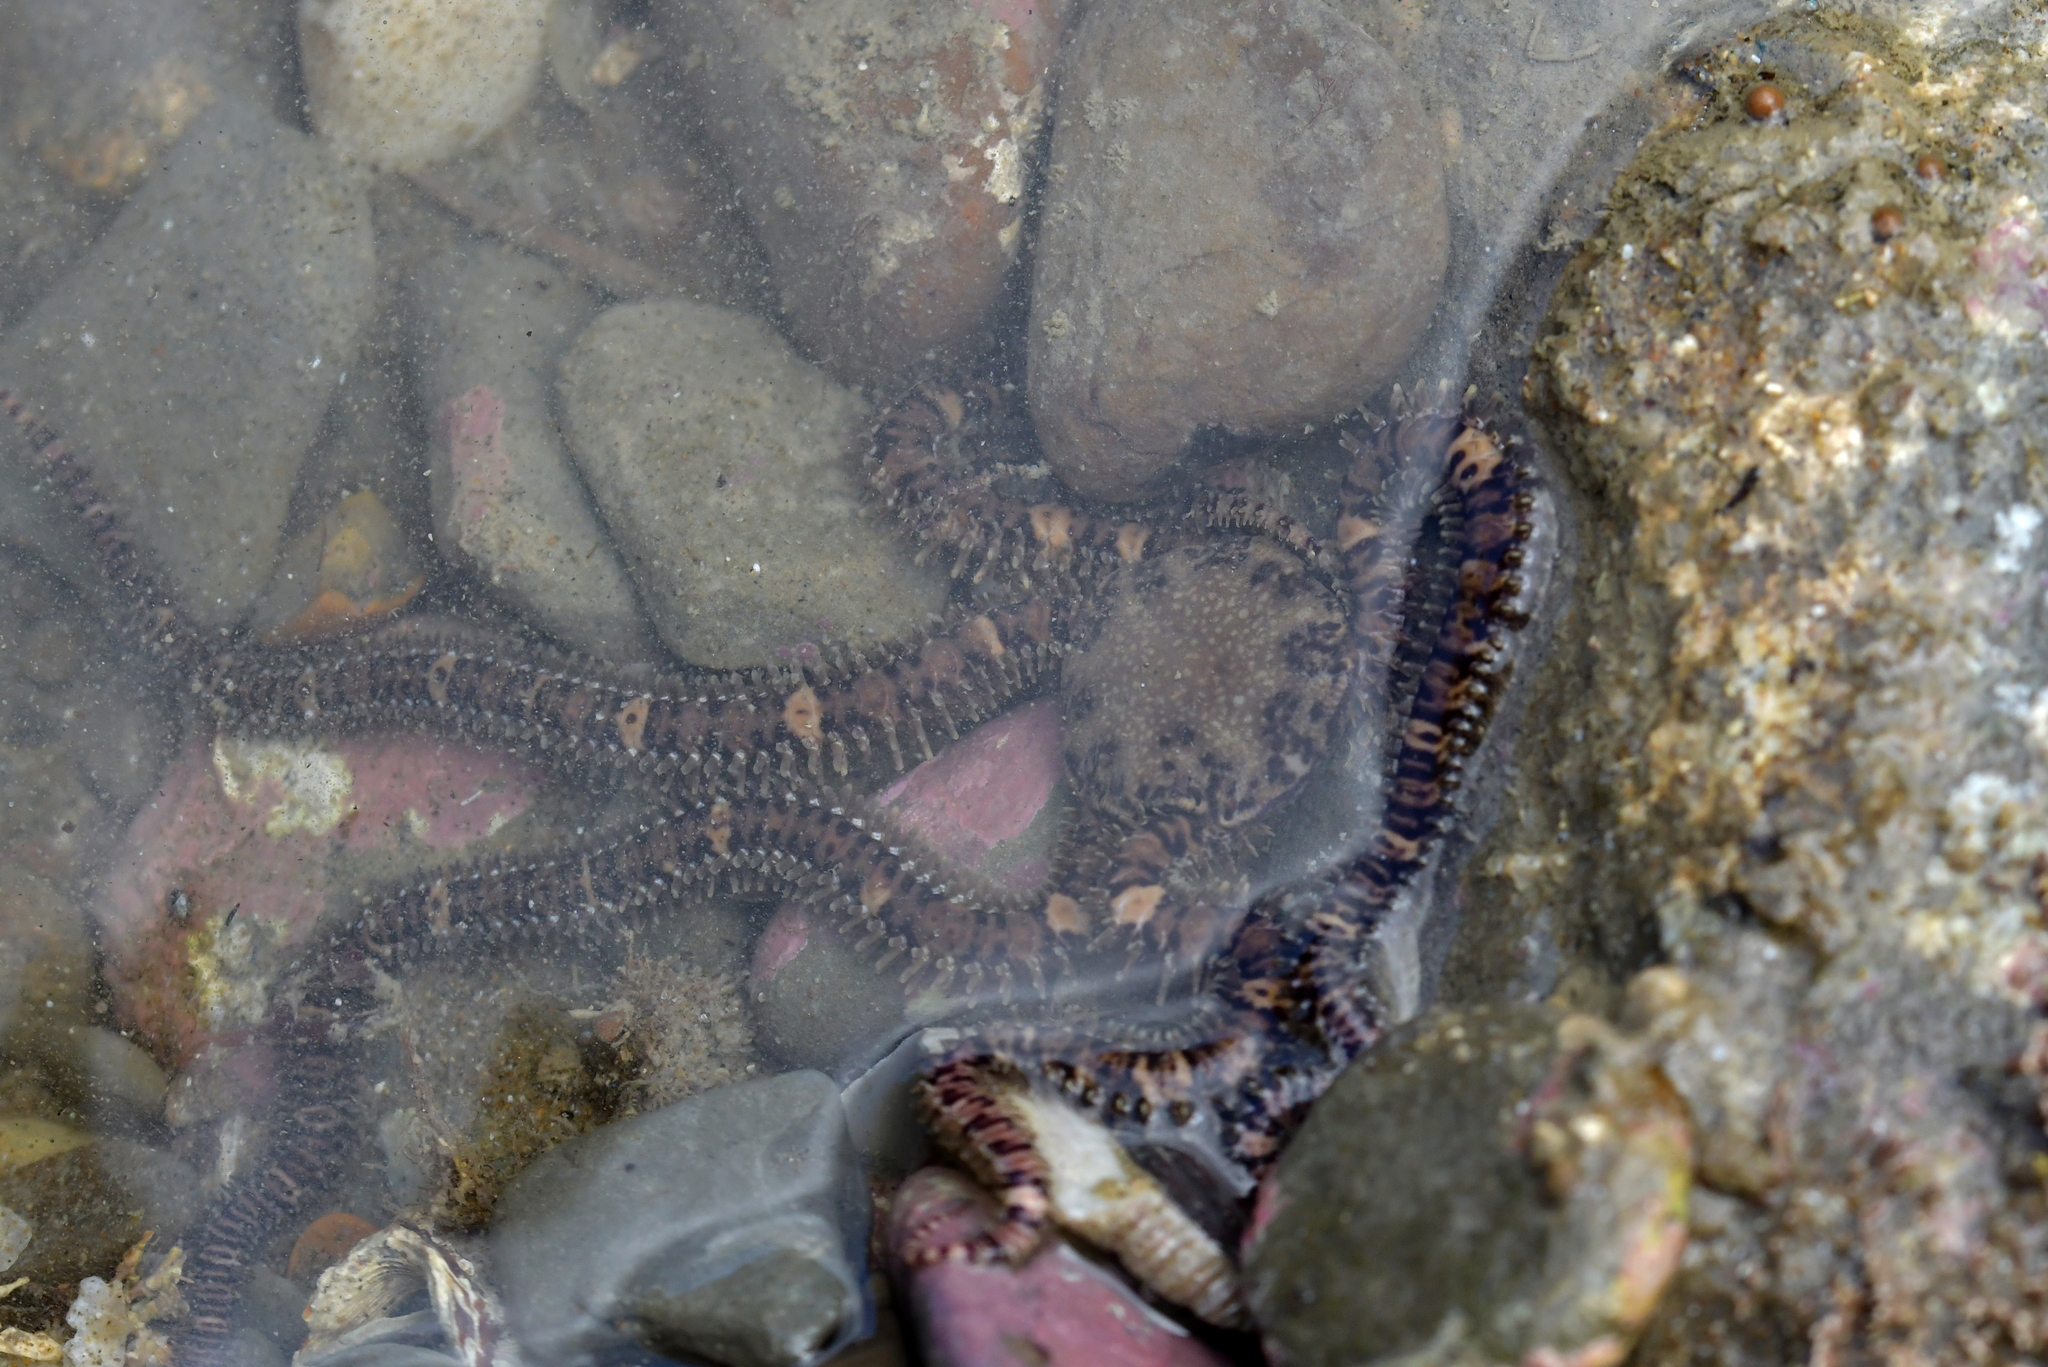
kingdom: Animalia
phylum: Echinodermata
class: Ophiuroidea
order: Amphilepidida
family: Ophionereididae
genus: Ophionereis
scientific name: Ophionereis fasciata
